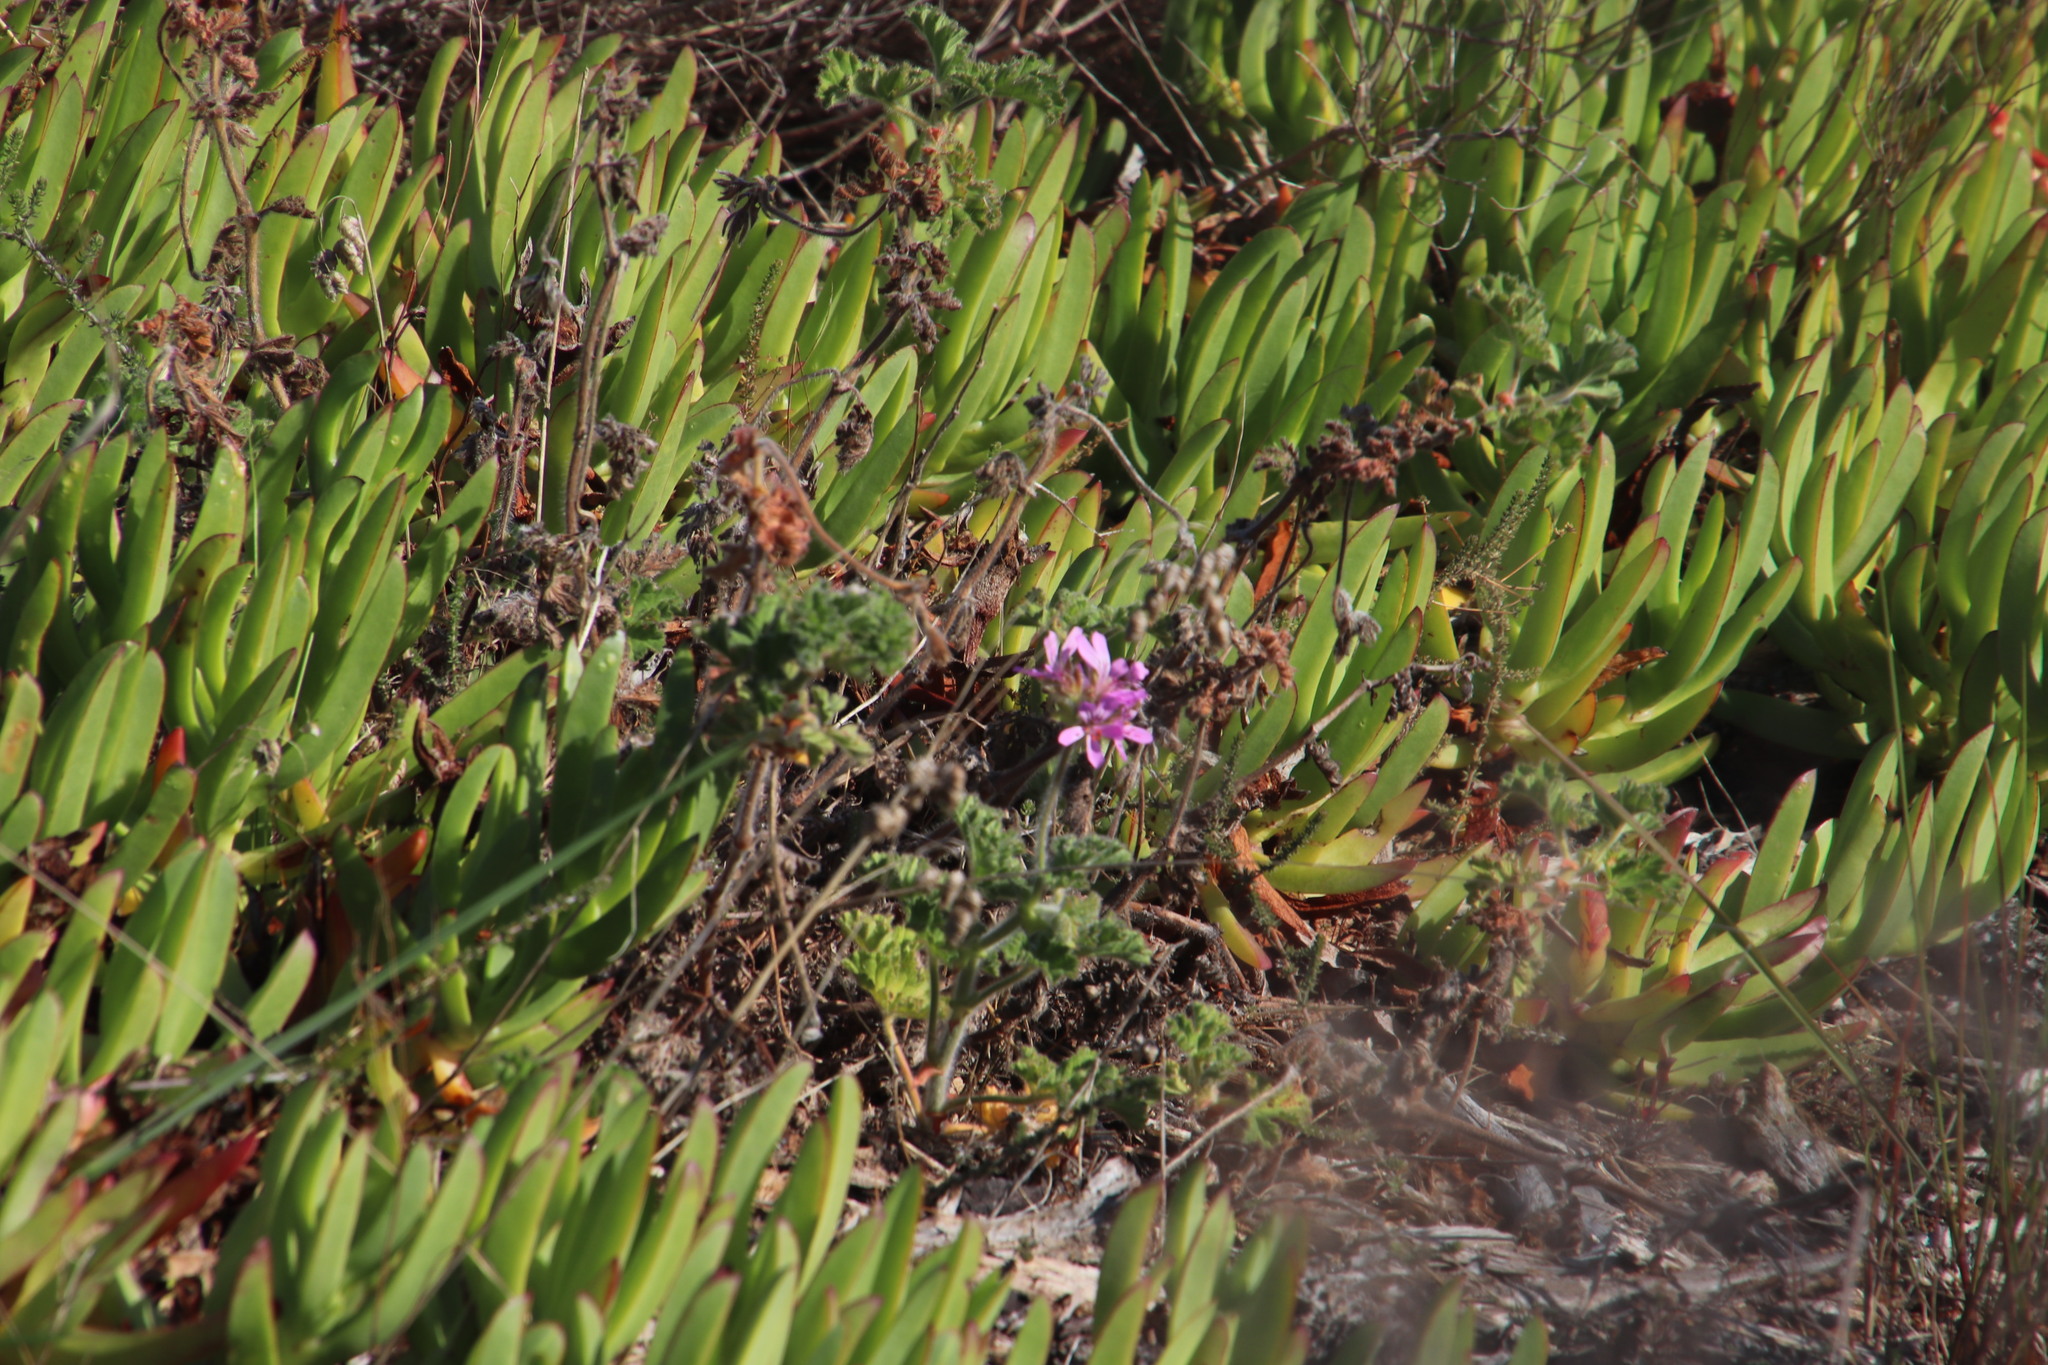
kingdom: Plantae
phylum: Tracheophyta
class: Magnoliopsida
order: Geraniales
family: Geraniaceae
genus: Pelargonium
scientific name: Pelargonium capitatum
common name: Rose scented geranium
